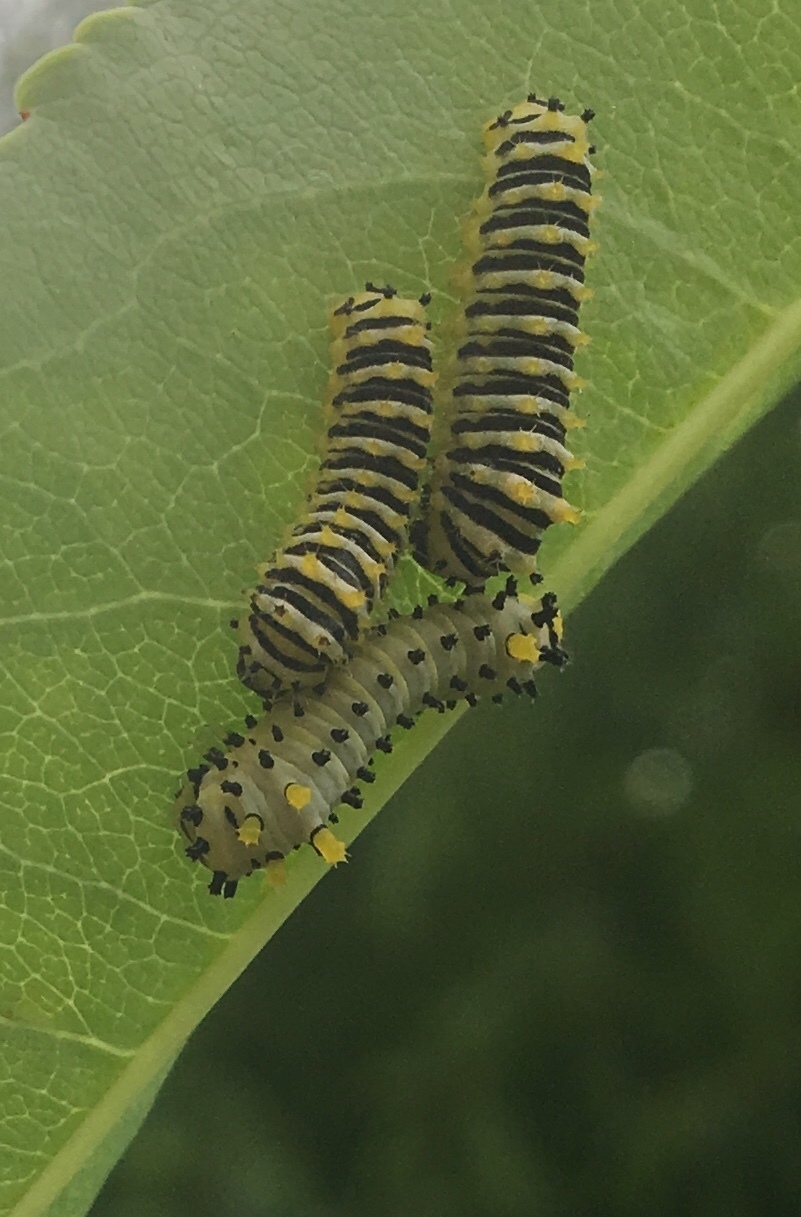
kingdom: Animalia
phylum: Arthropoda
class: Insecta
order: Lepidoptera
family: Saturniidae
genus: Callosamia
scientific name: Callosamia promethea
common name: Promethea silkmoth
